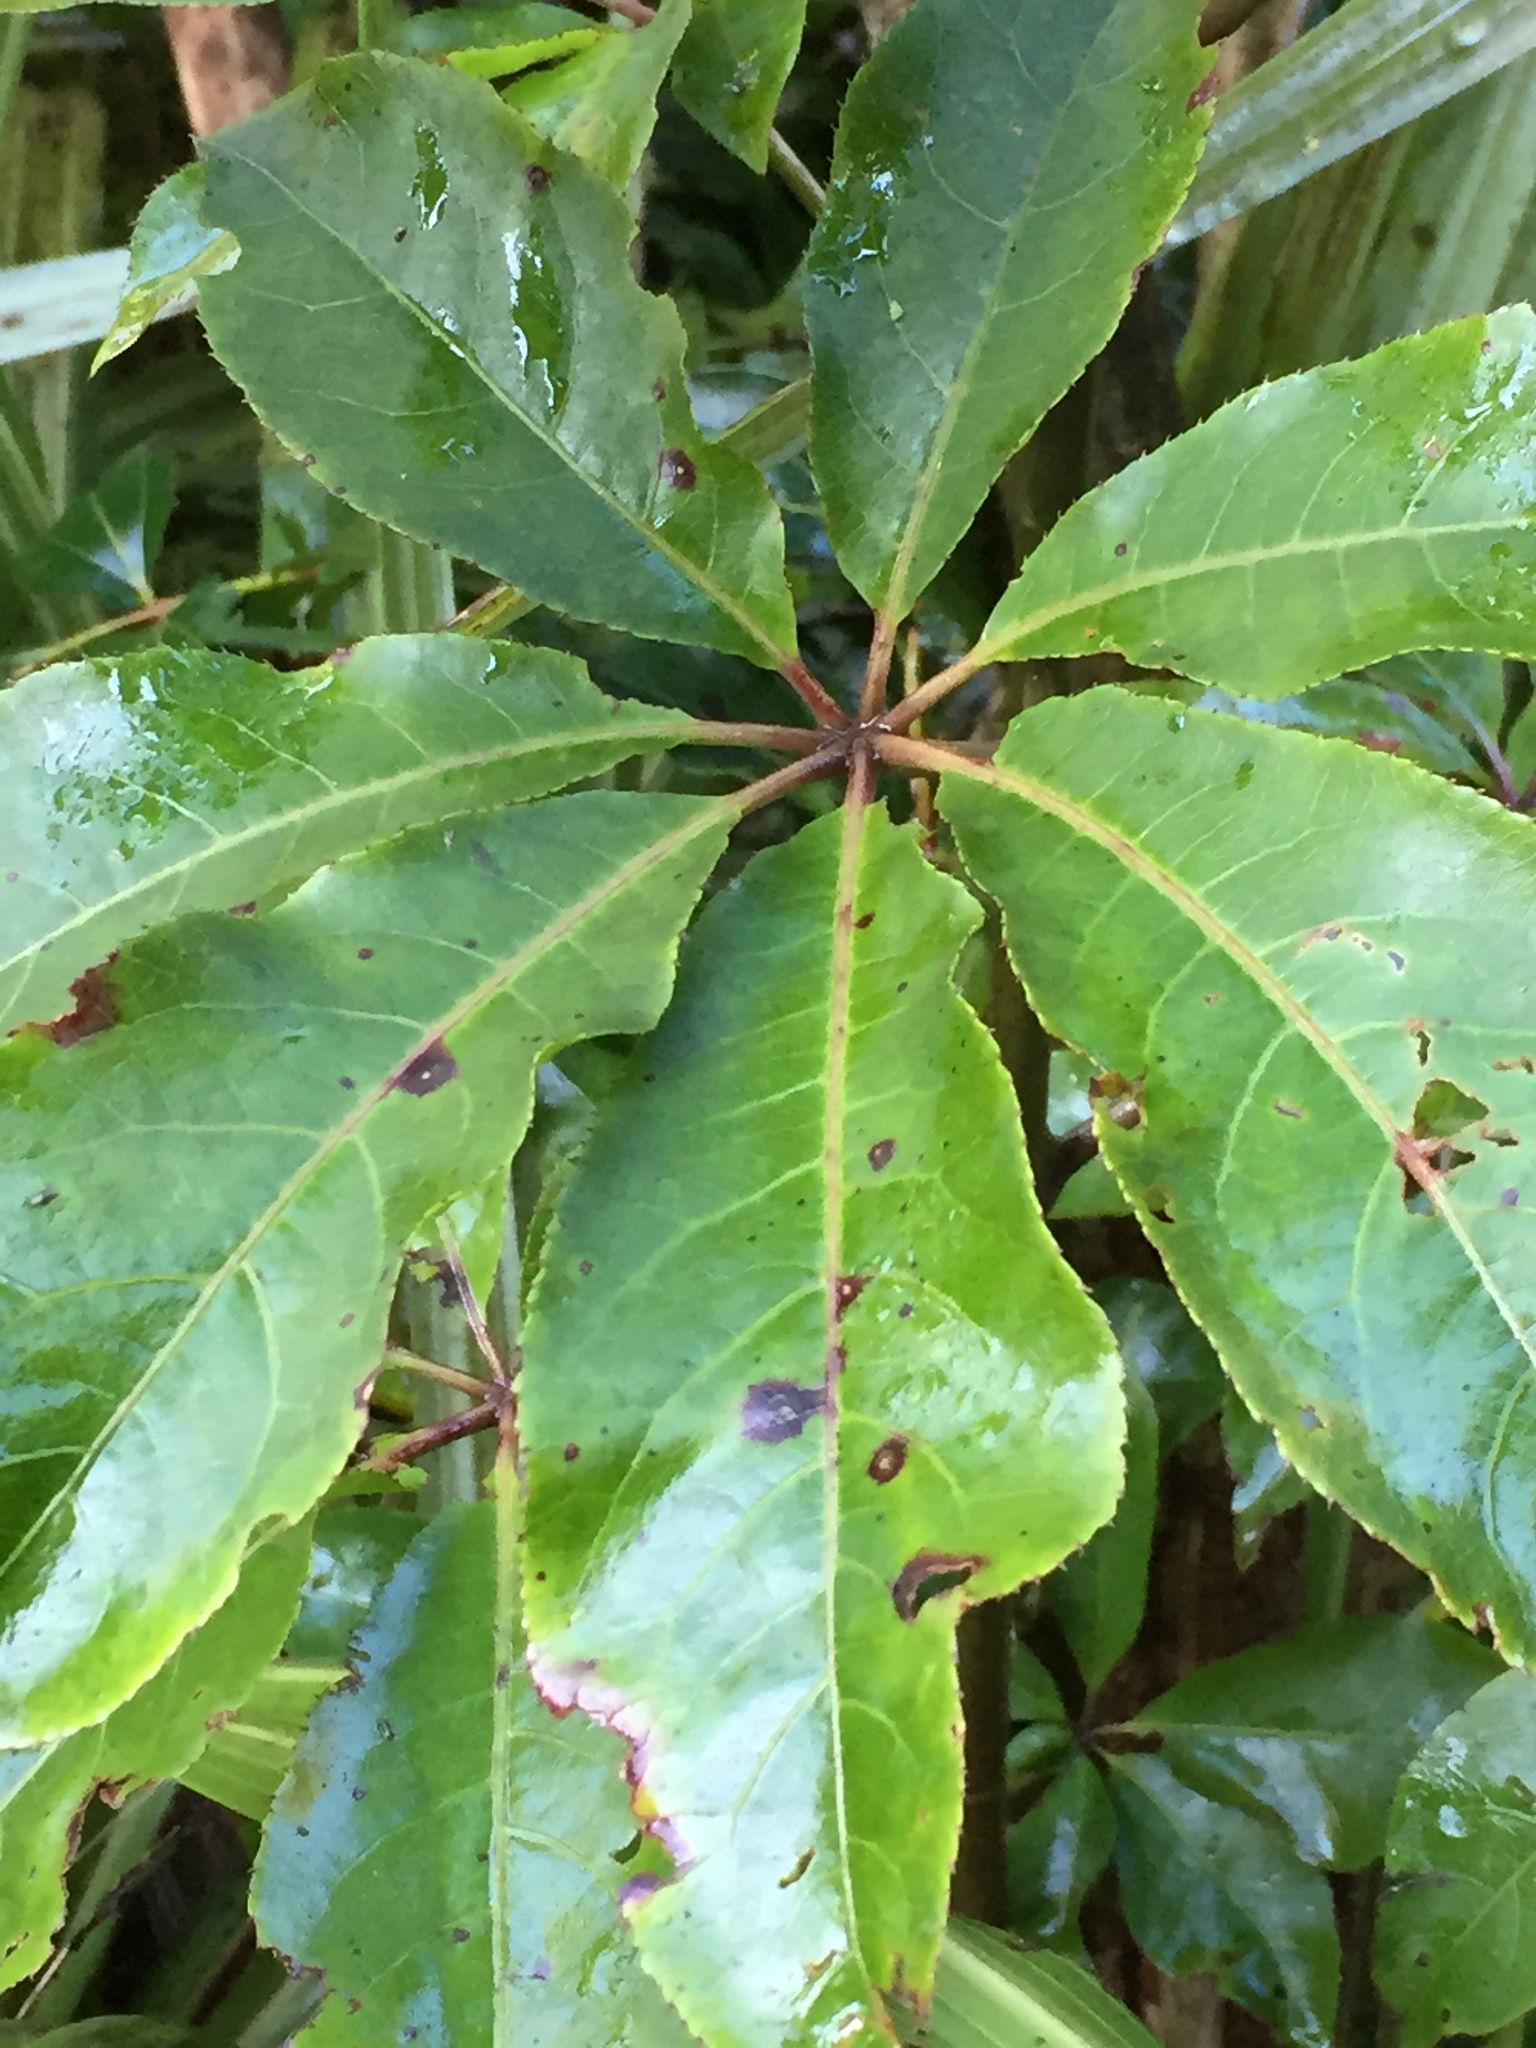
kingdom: Plantae
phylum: Tracheophyta
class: Magnoliopsida
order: Apiales
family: Araliaceae
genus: Schefflera
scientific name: Schefflera digitata
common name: Pate
